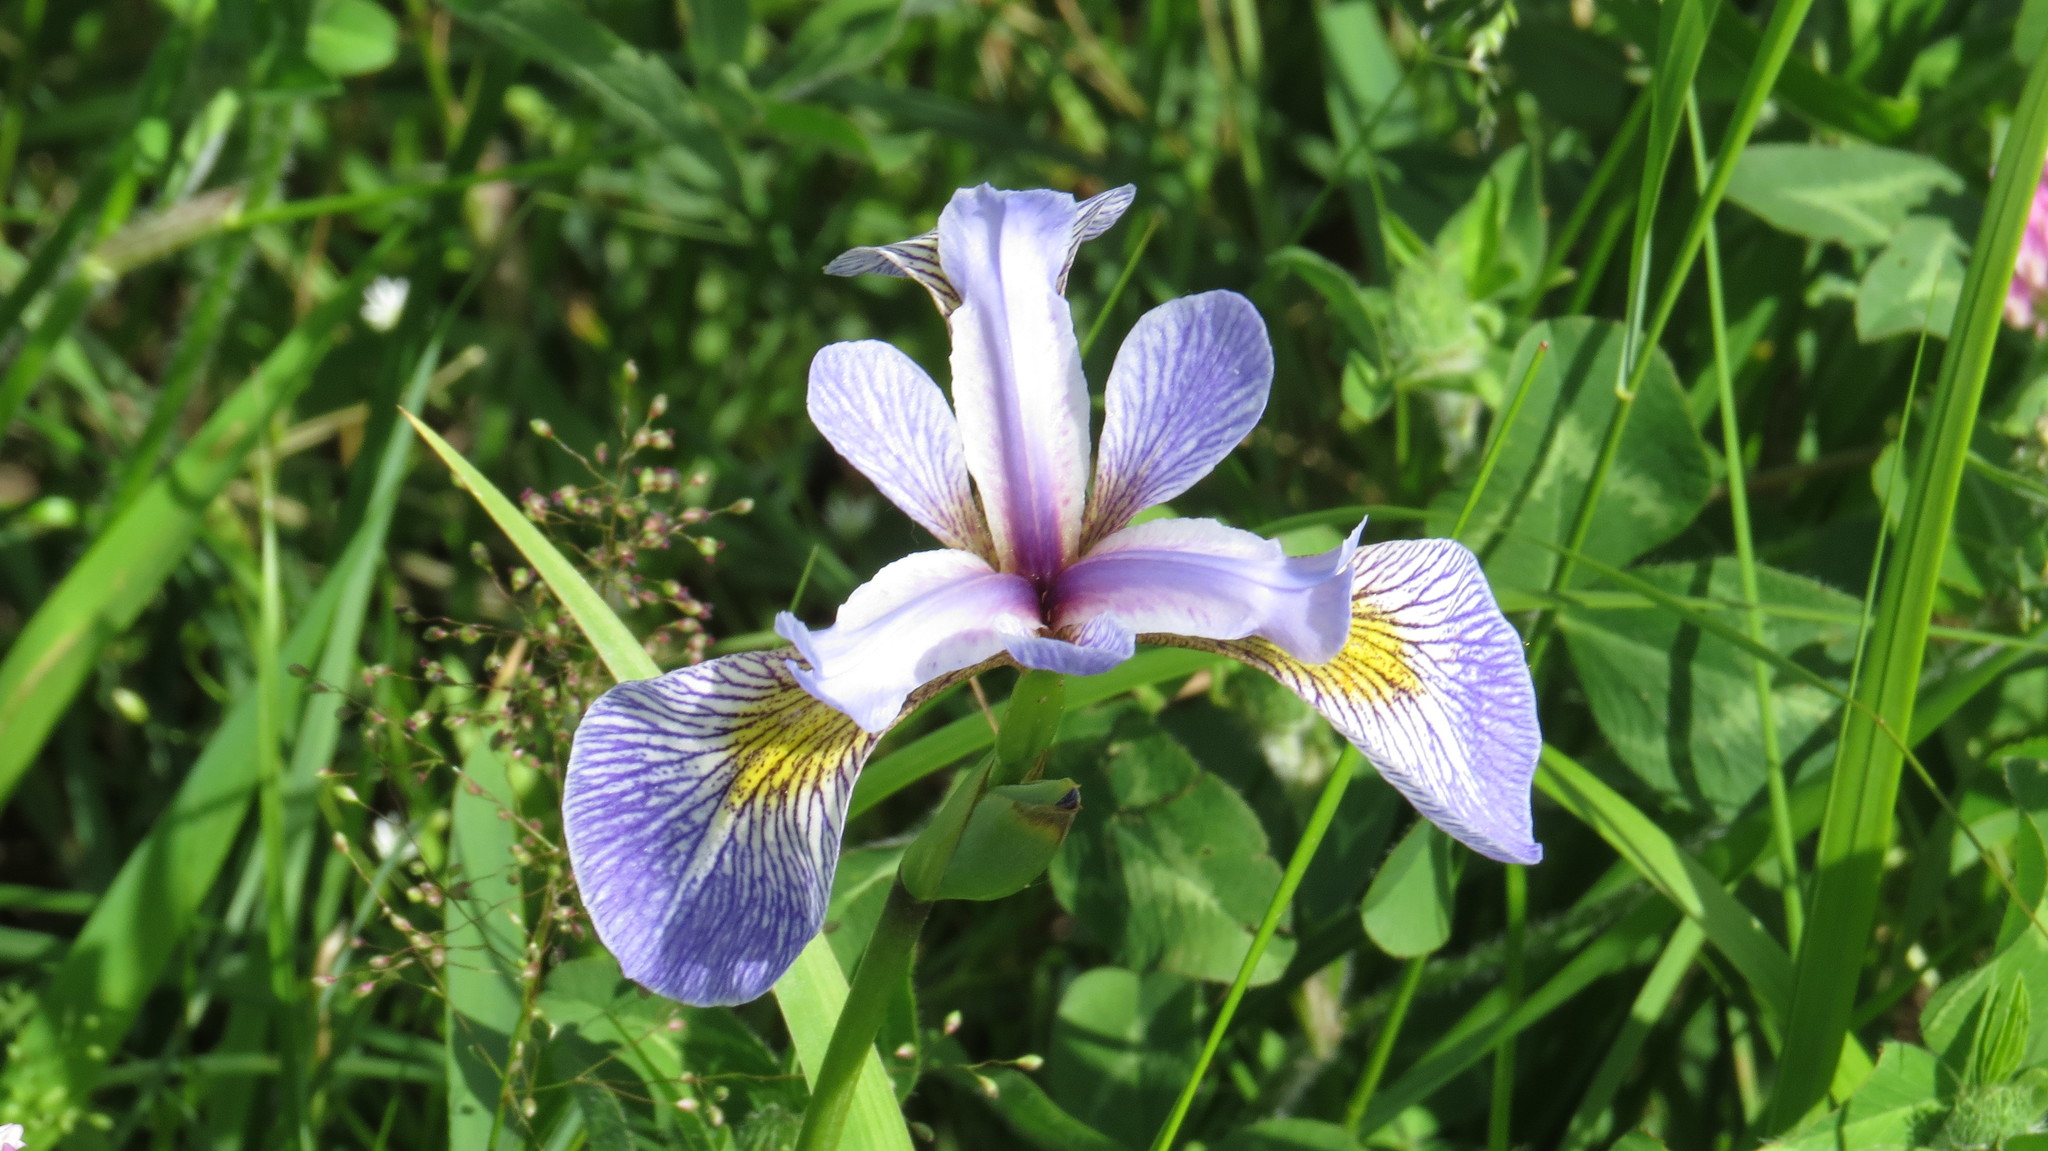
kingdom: Plantae
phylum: Tracheophyta
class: Liliopsida
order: Asparagales
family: Iridaceae
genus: Iris
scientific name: Iris versicolor
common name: Purple iris
